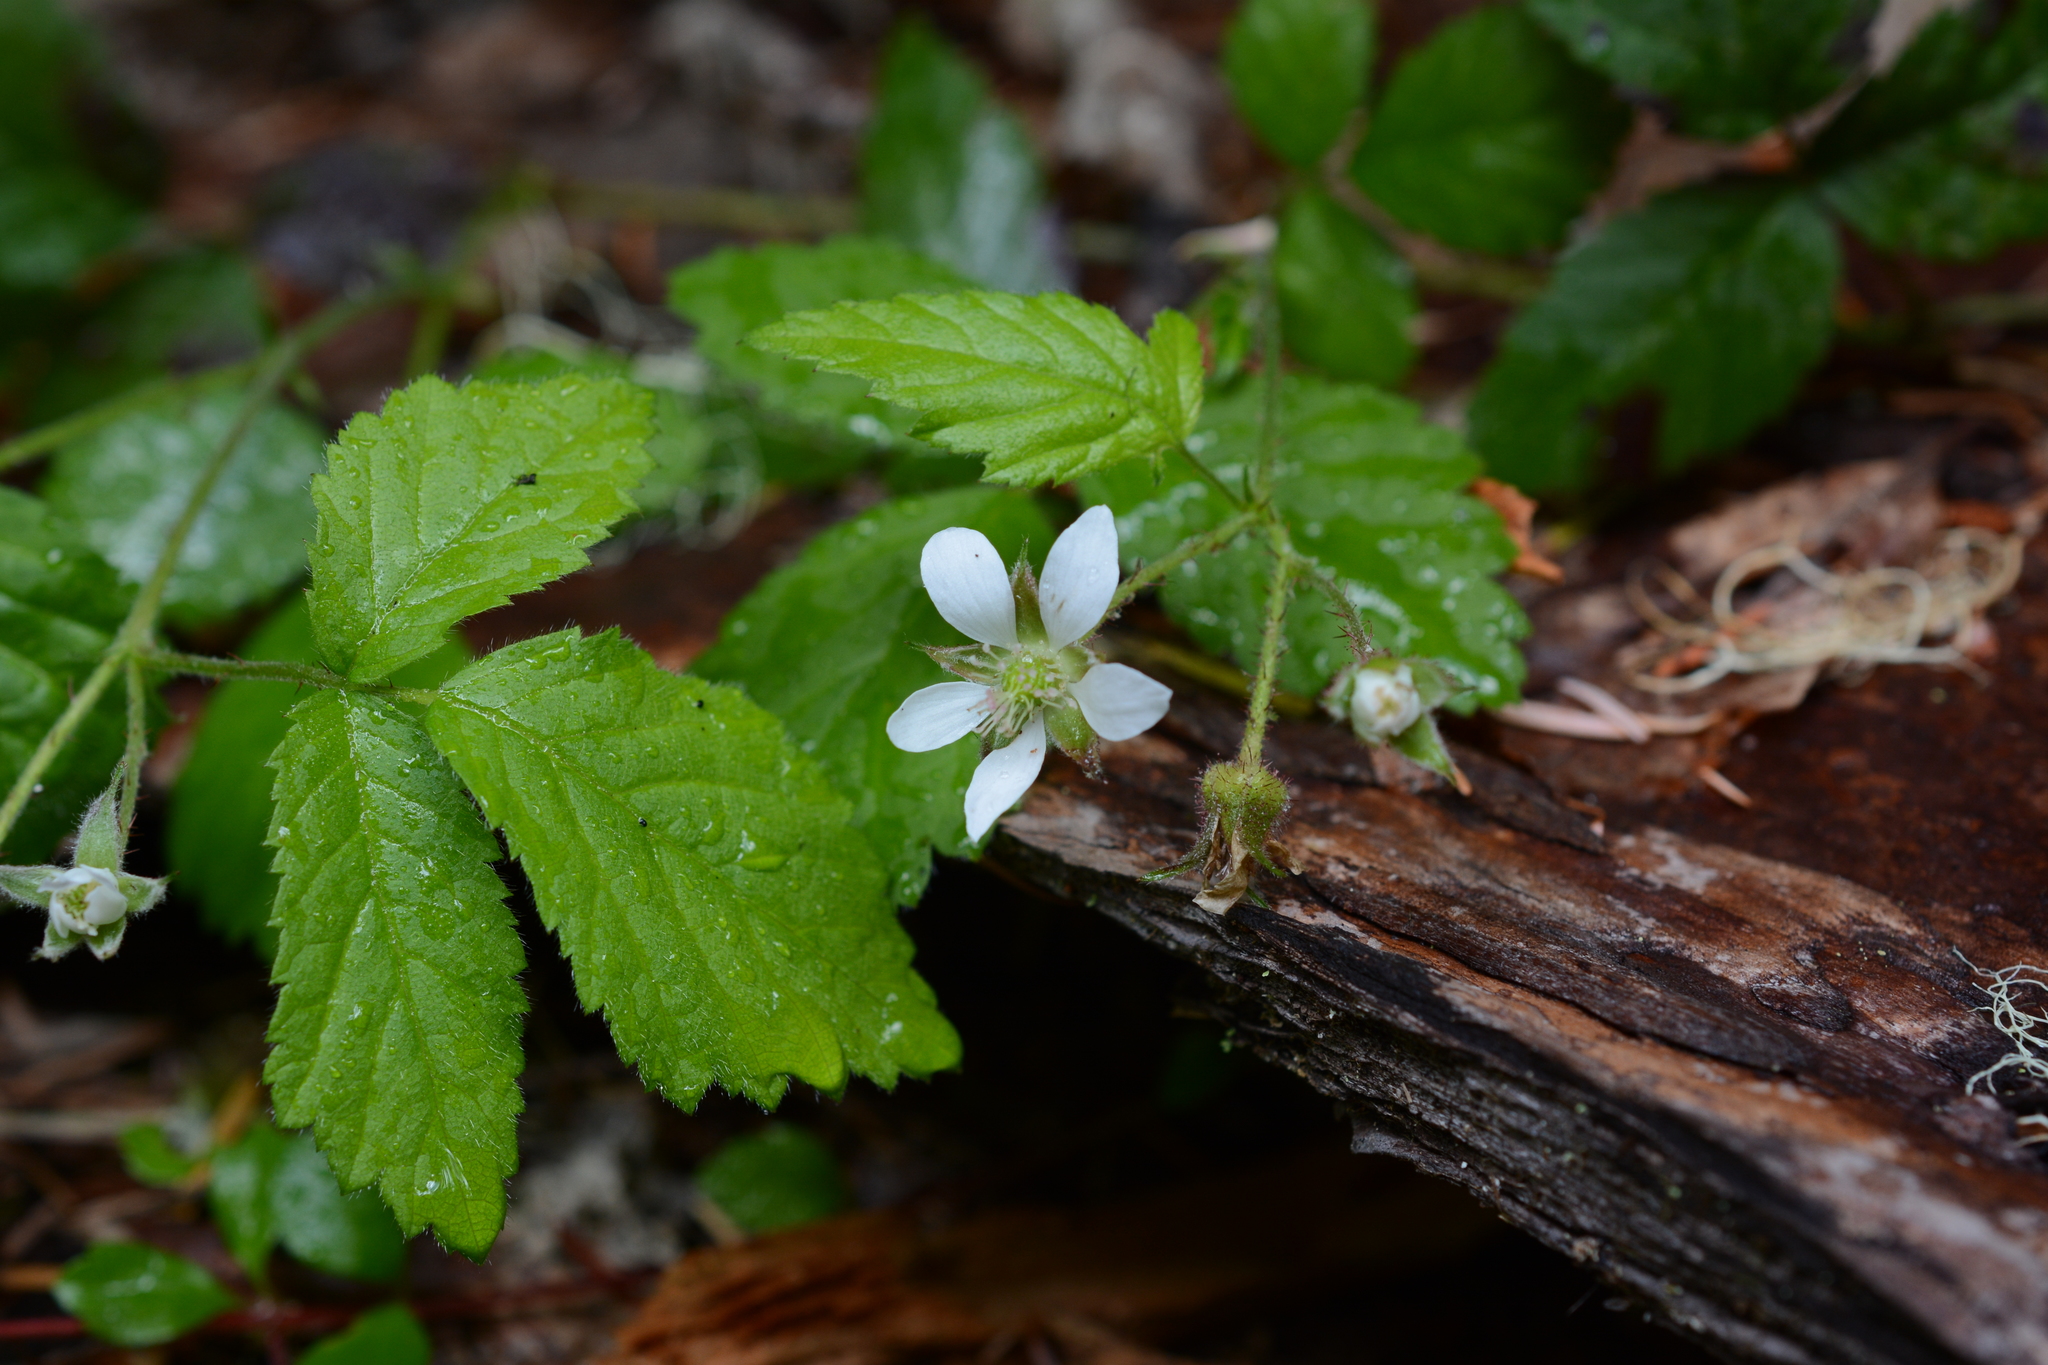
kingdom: Plantae
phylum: Tracheophyta
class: Magnoliopsida
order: Rosales
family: Rosaceae
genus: Rubus
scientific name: Rubus ursinus
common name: Pacific blackberry
